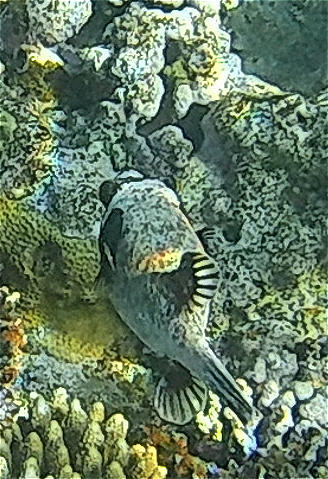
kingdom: Animalia
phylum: Chordata
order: Tetraodontiformes
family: Tetraodontidae
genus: Arothron
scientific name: Arothron diadematus
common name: Masked puffer
